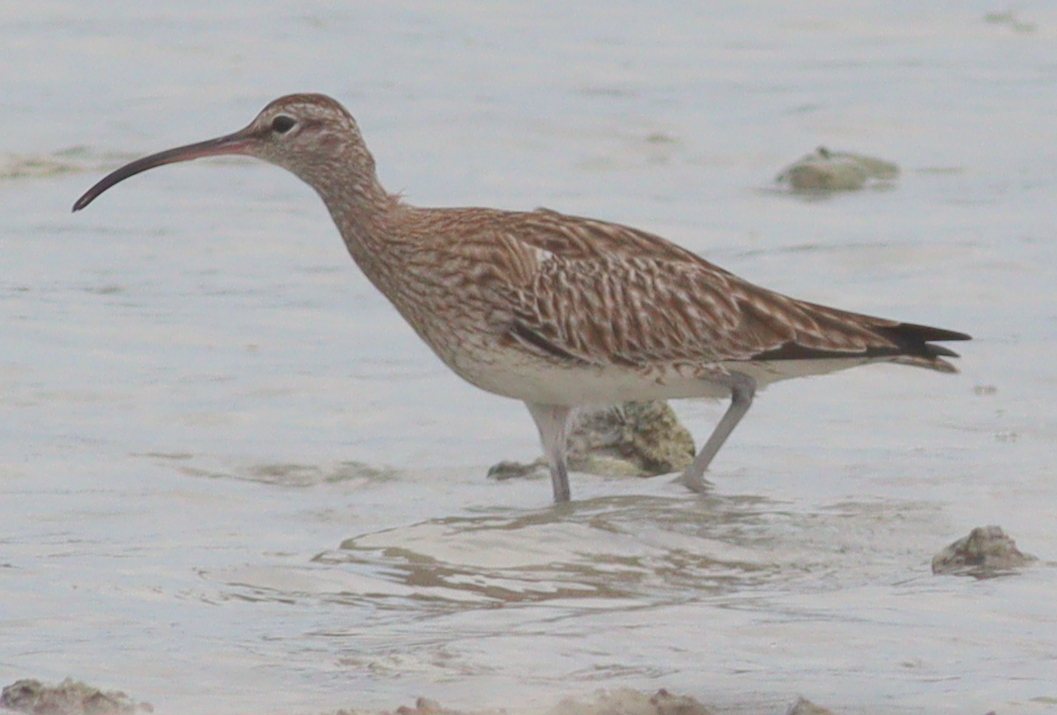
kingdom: Animalia
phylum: Chordata
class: Aves
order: Charadriiformes
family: Scolopacidae
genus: Numenius
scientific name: Numenius phaeopus
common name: Whimbrel
